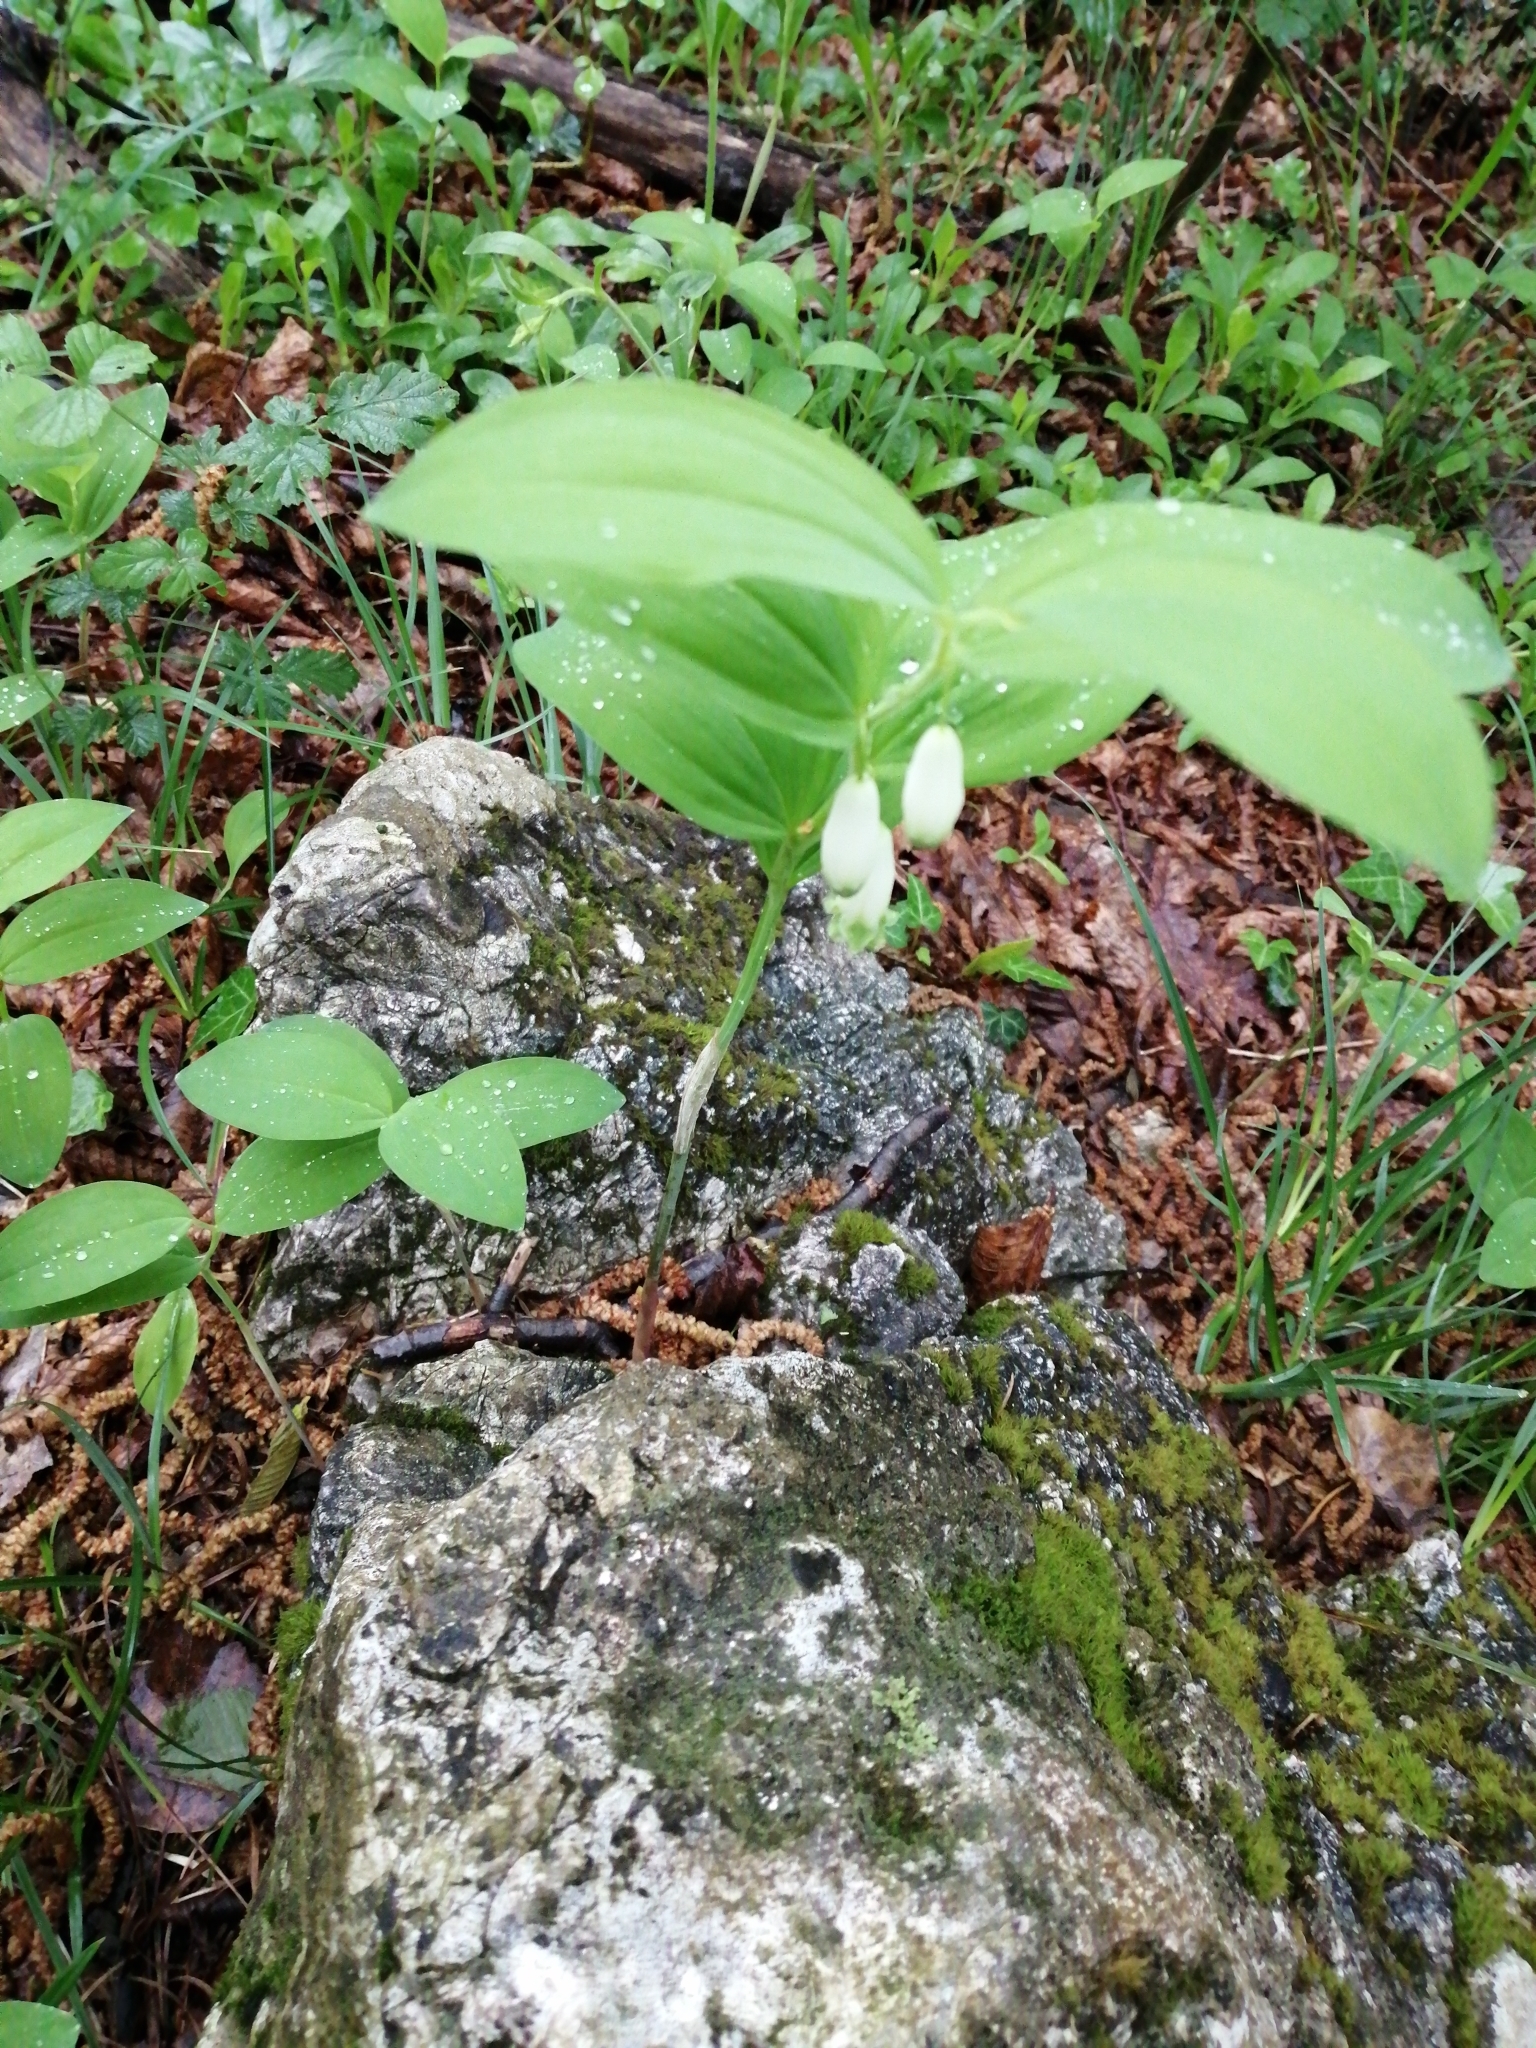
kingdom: Plantae
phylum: Tracheophyta
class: Liliopsida
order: Asparagales
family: Asparagaceae
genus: Polygonatum
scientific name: Polygonatum odoratum
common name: Angular solomon's-seal
